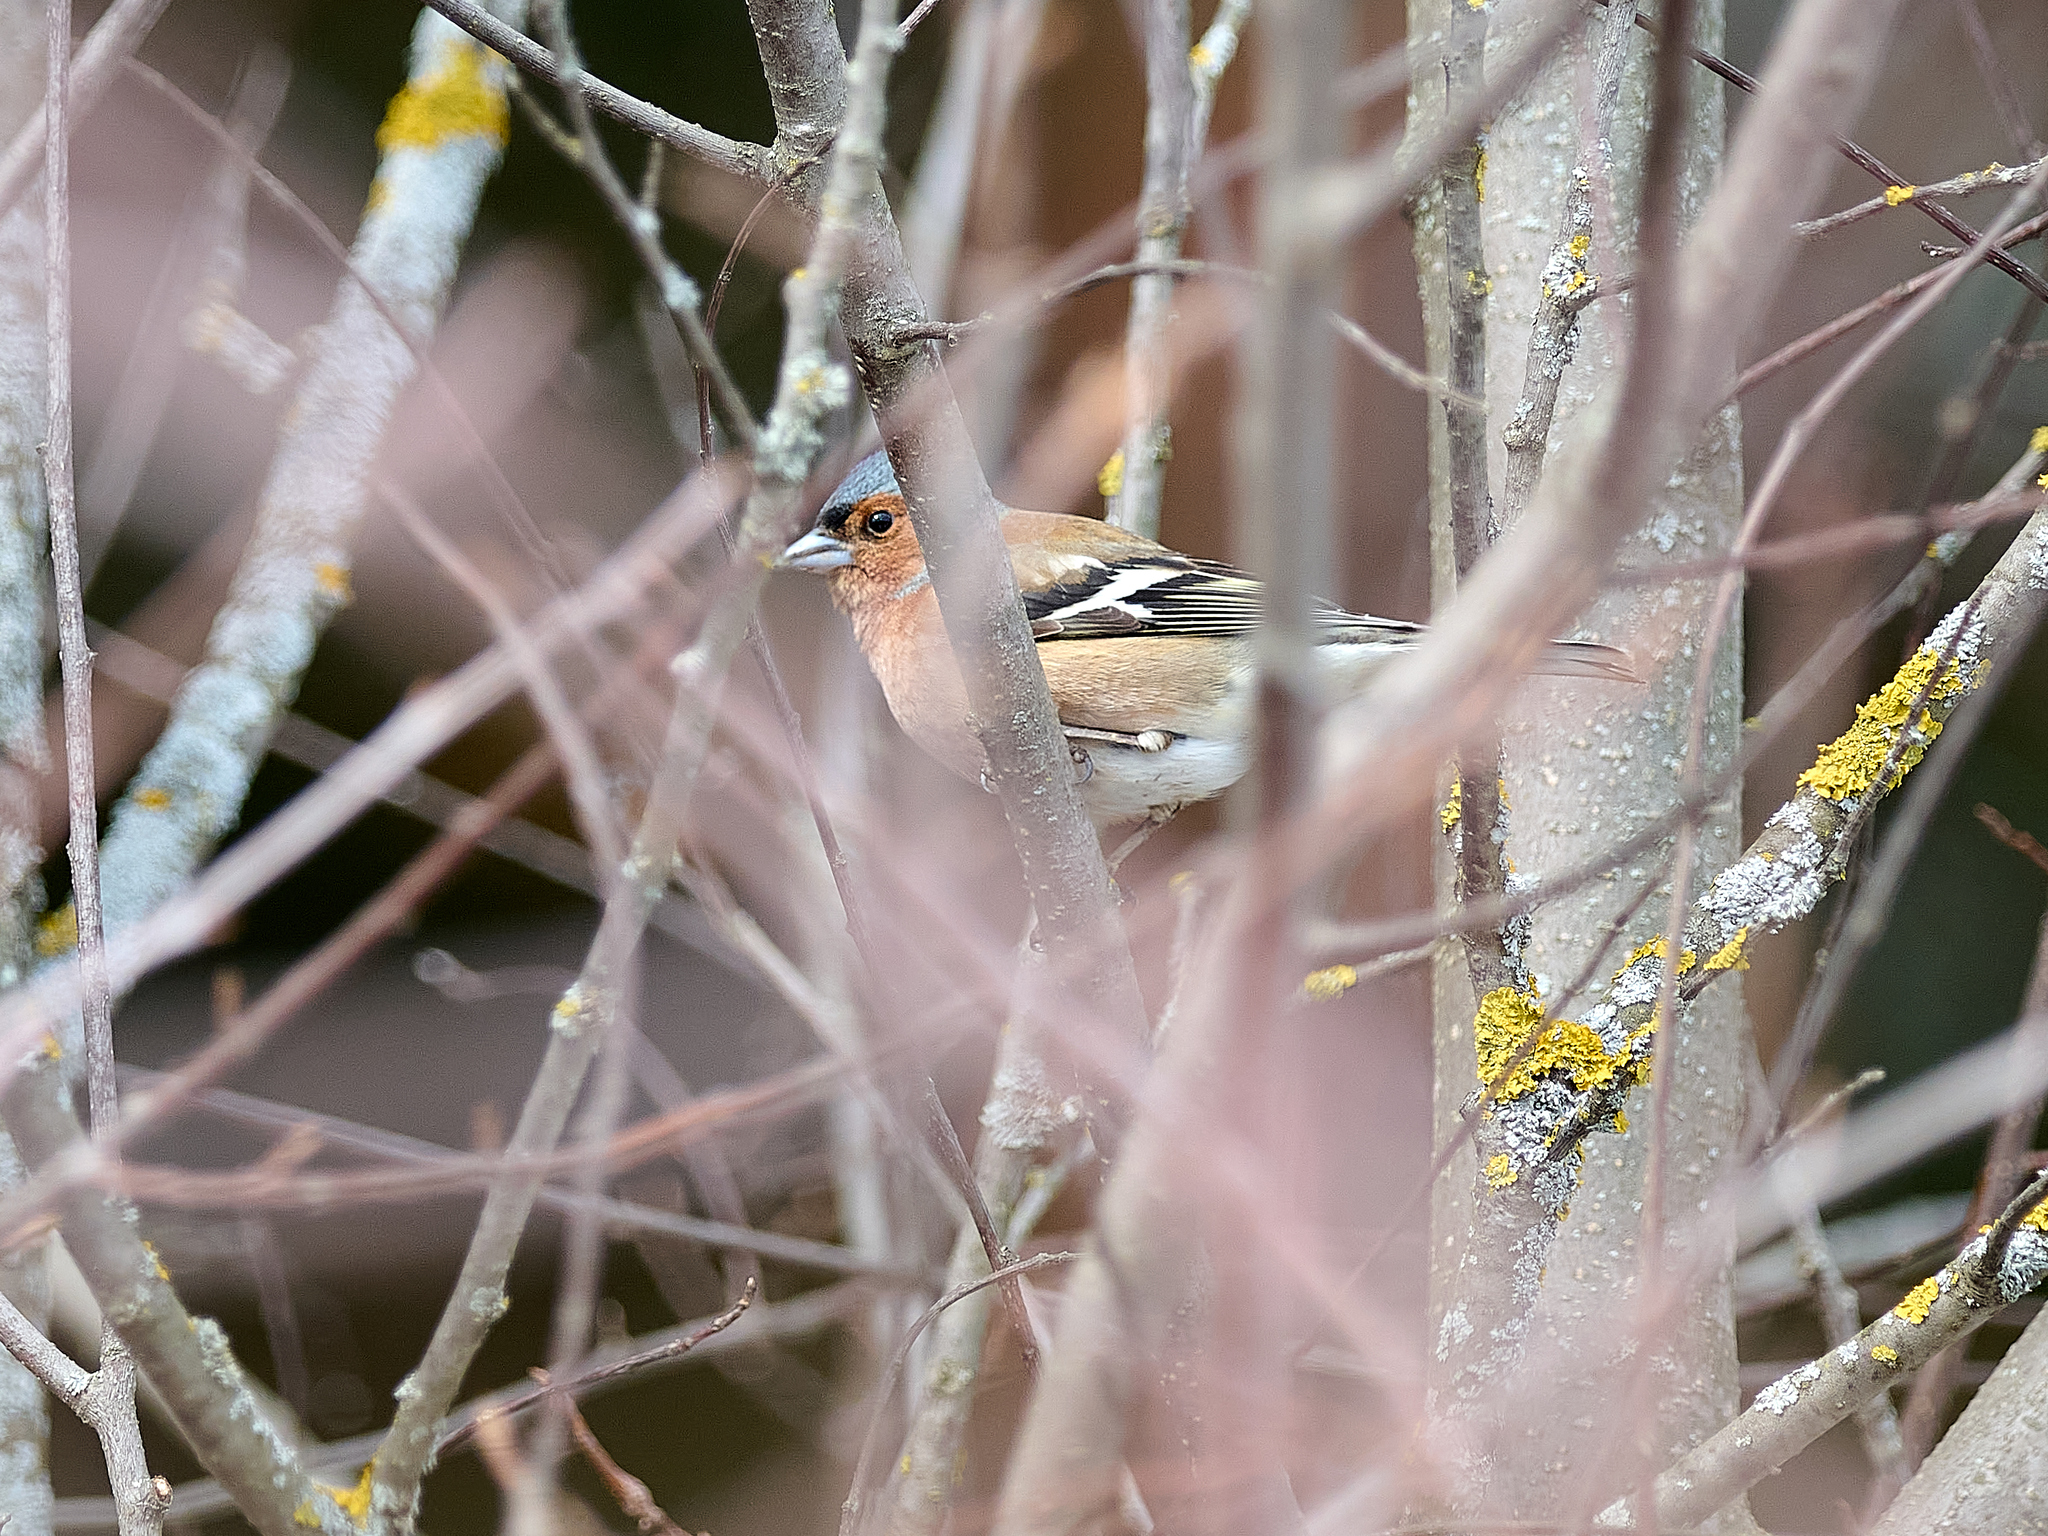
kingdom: Animalia
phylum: Chordata
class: Aves
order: Passeriformes
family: Fringillidae
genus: Fringilla
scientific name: Fringilla coelebs
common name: Common chaffinch
